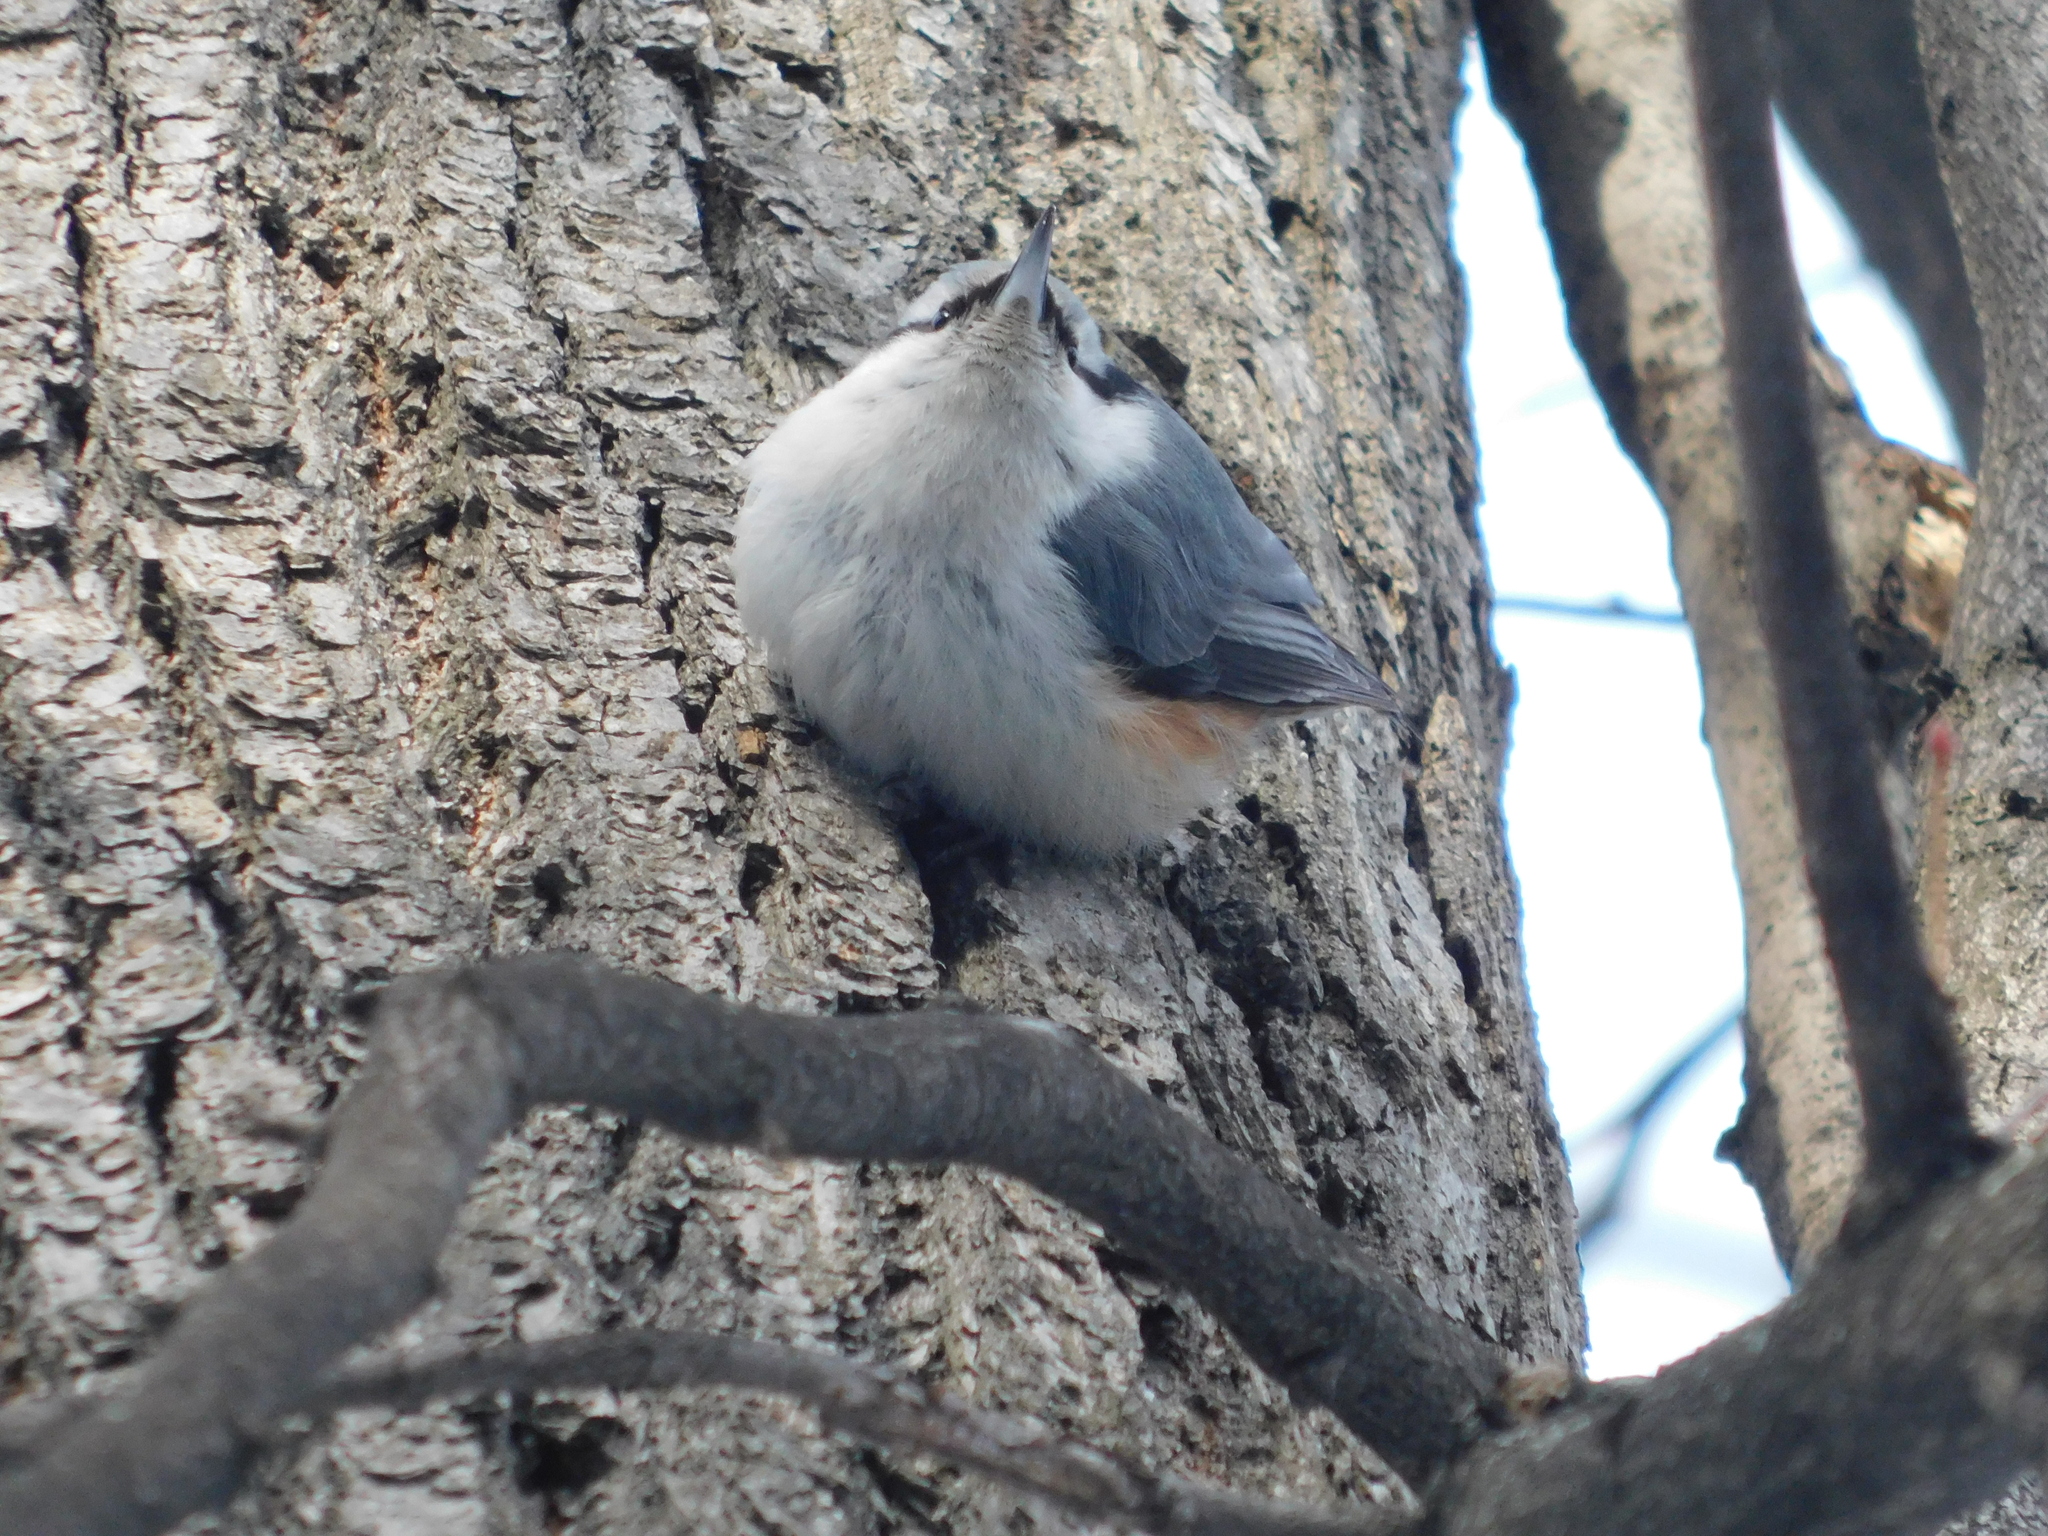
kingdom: Animalia
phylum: Chordata
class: Aves
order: Passeriformes
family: Sittidae
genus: Sitta
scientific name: Sitta europaea
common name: Eurasian nuthatch
